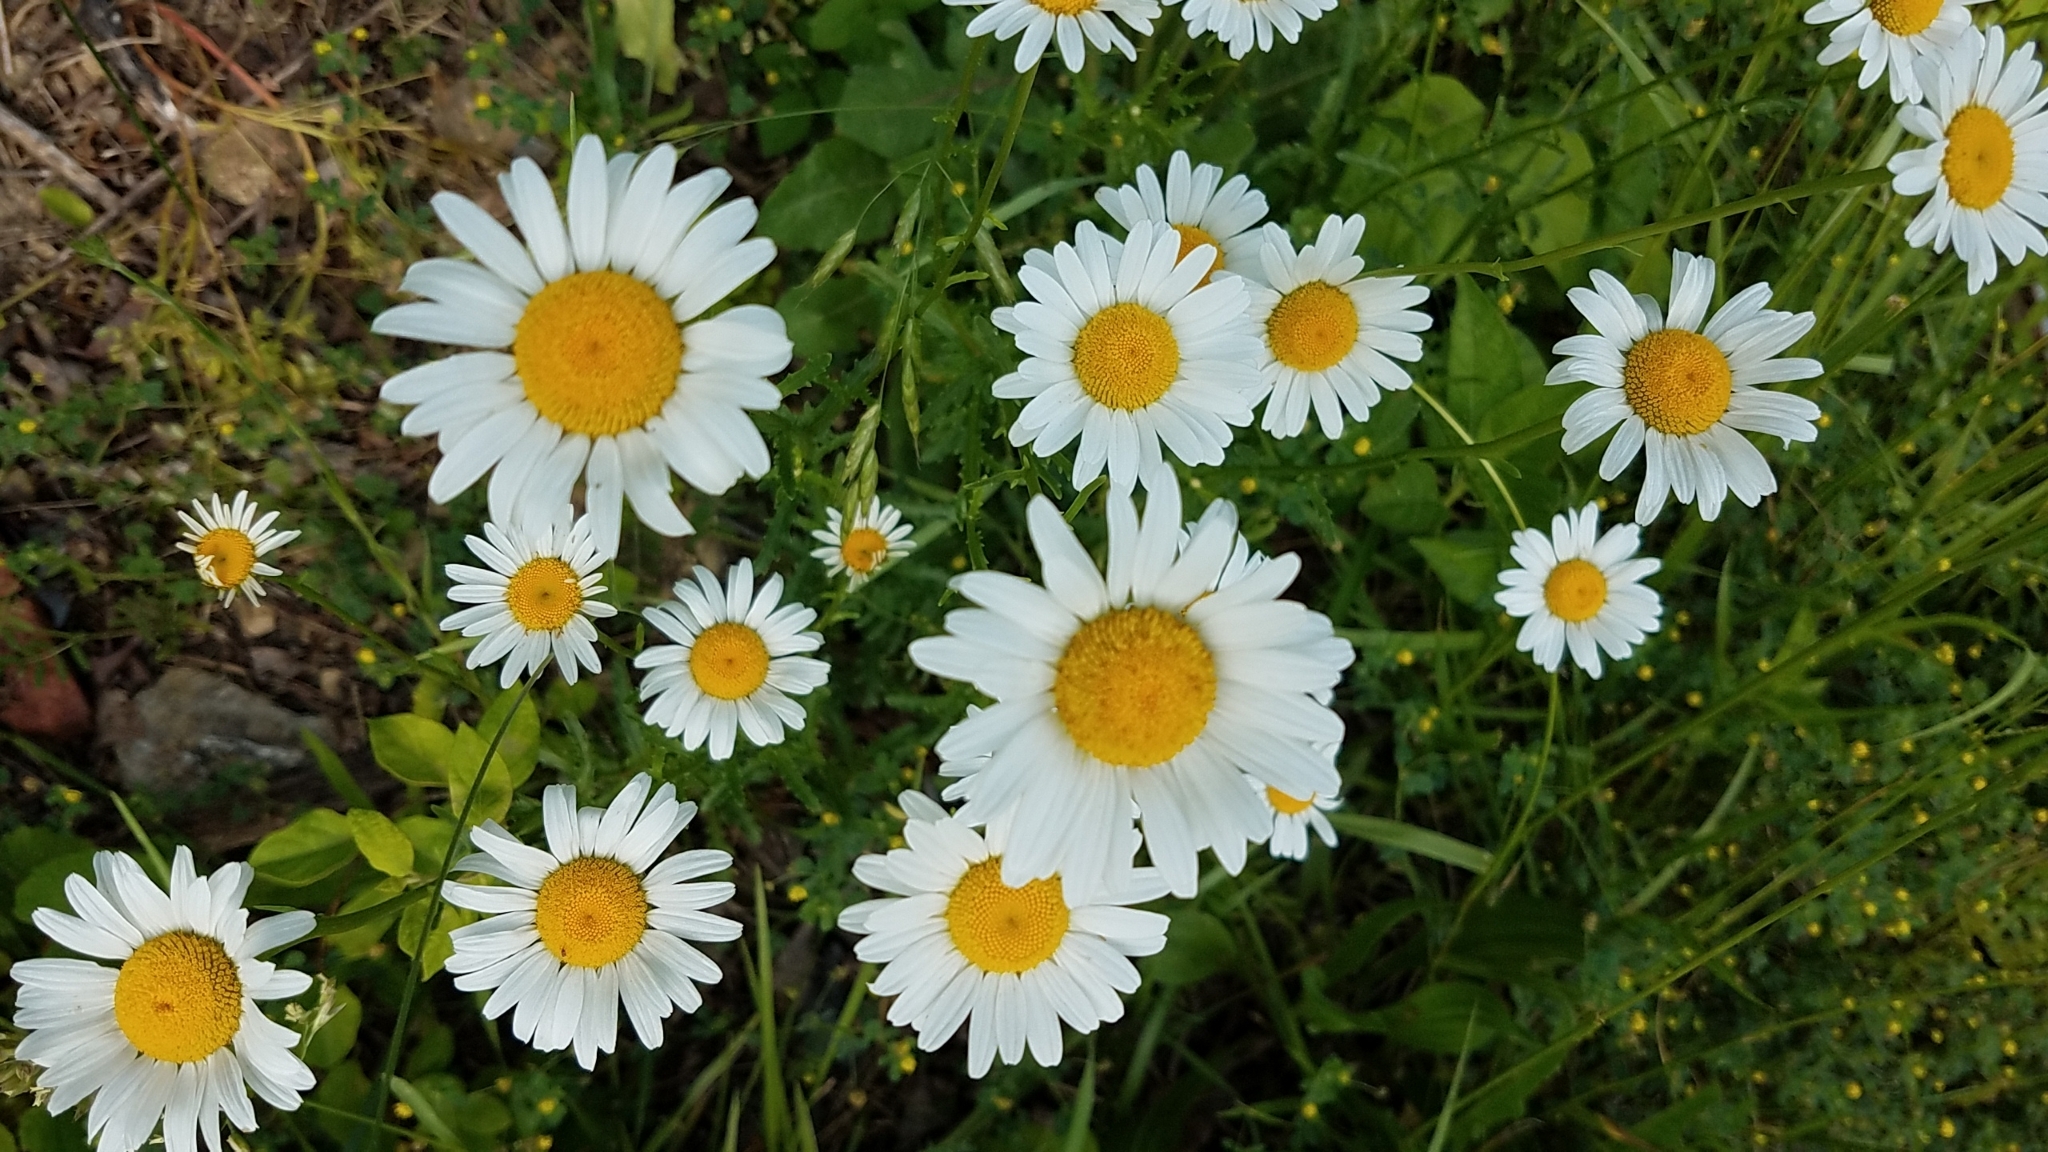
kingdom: Plantae
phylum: Tracheophyta
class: Magnoliopsida
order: Asterales
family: Asteraceae
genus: Leucanthemum
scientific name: Leucanthemum vulgare
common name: Oxeye daisy
